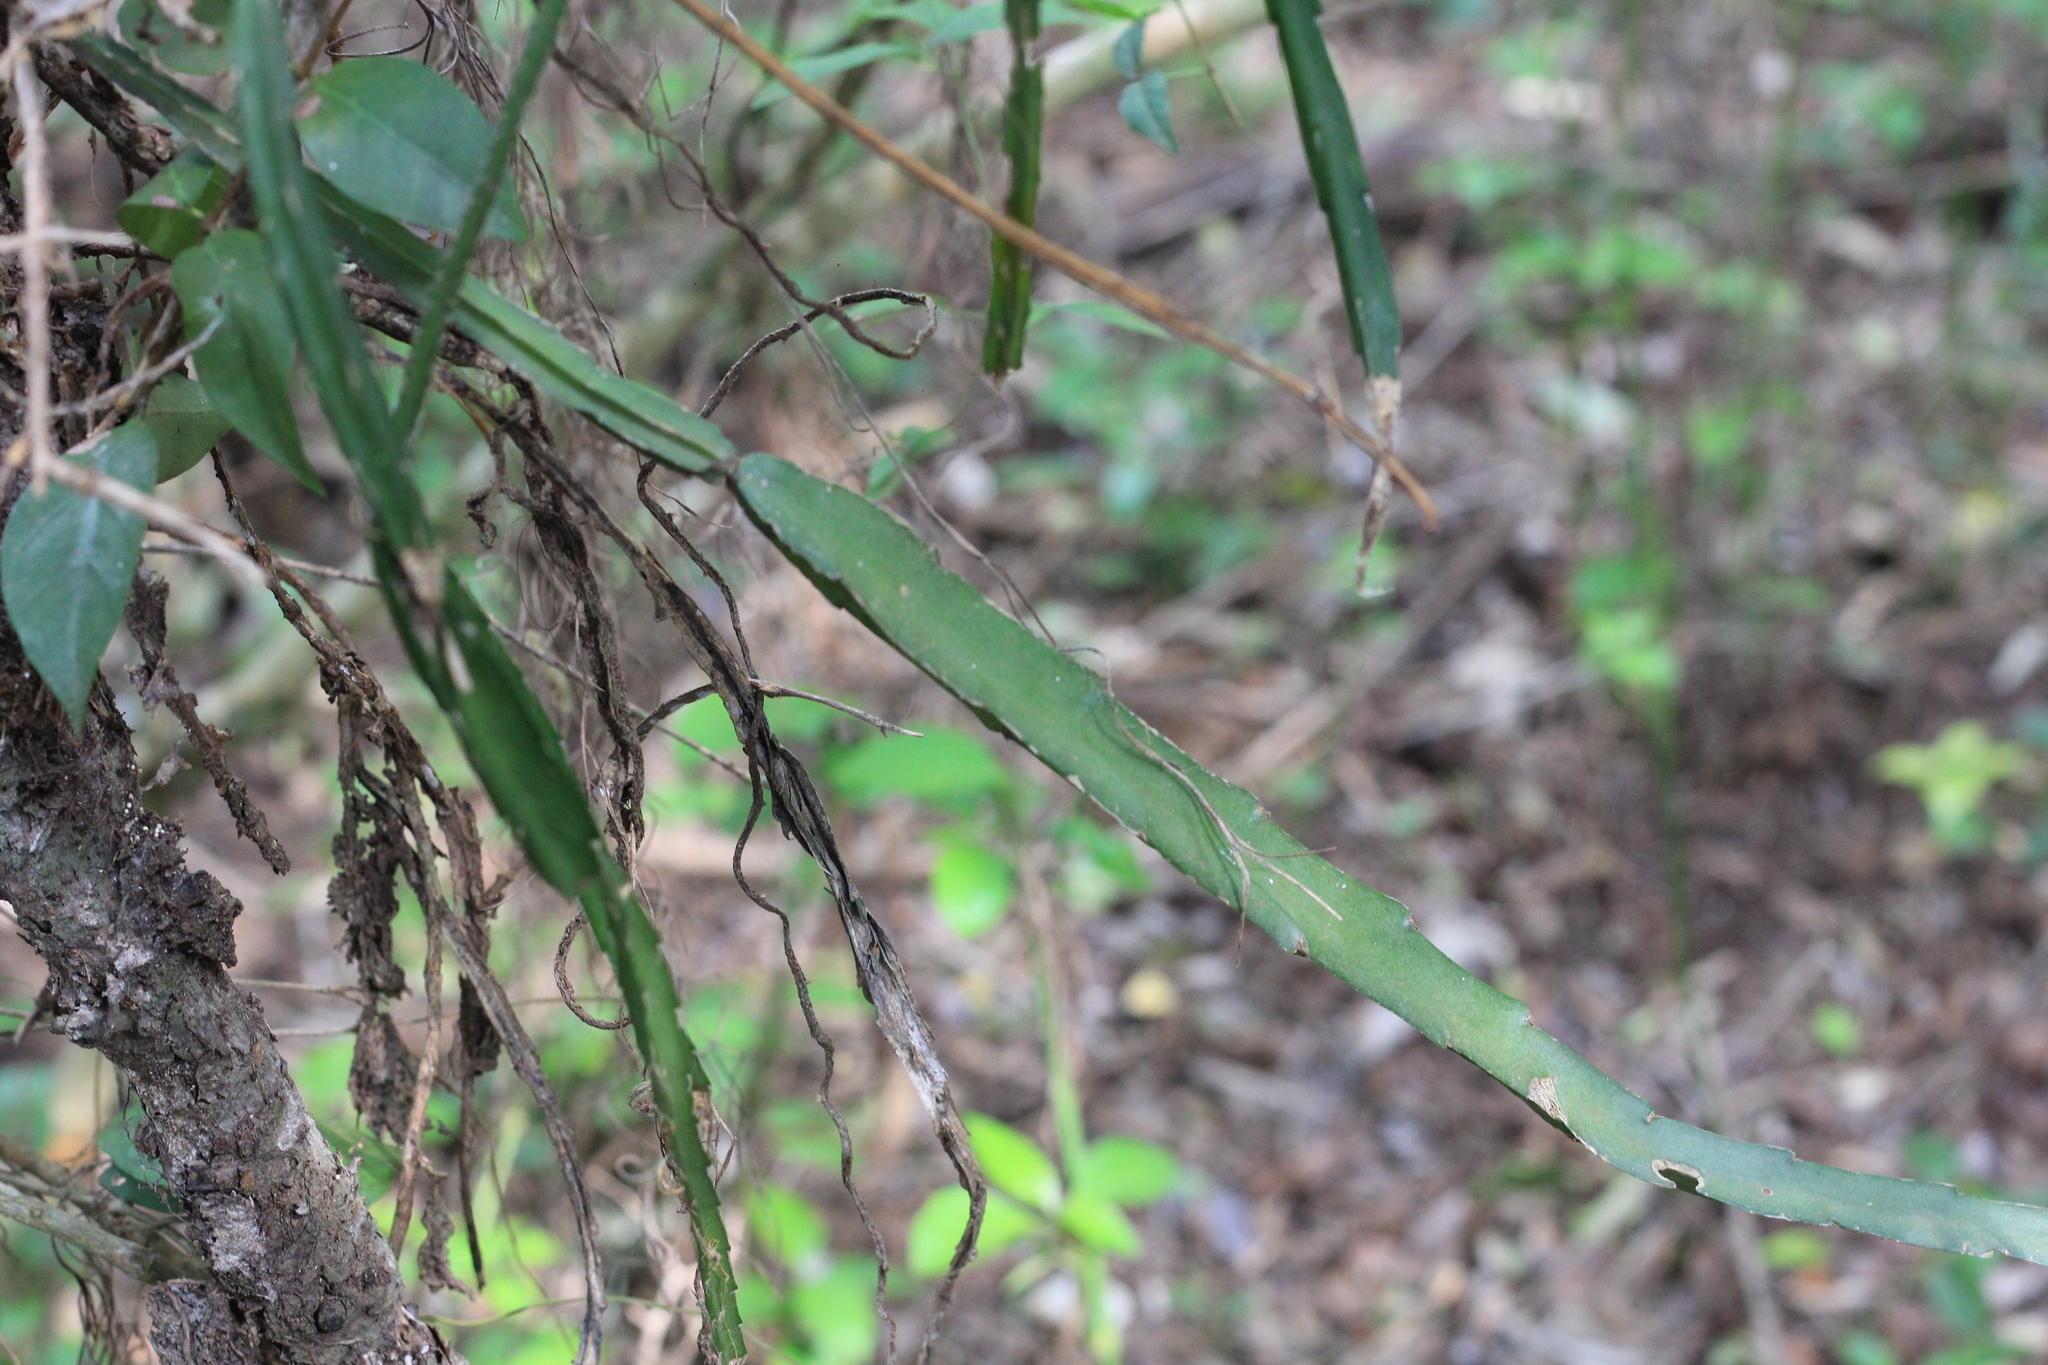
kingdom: Plantae
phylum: Tracheophyta
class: Magnoliopsida
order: Caryophyllales
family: Cactaceae
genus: Lepismium
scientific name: Lepismium cruciforme
